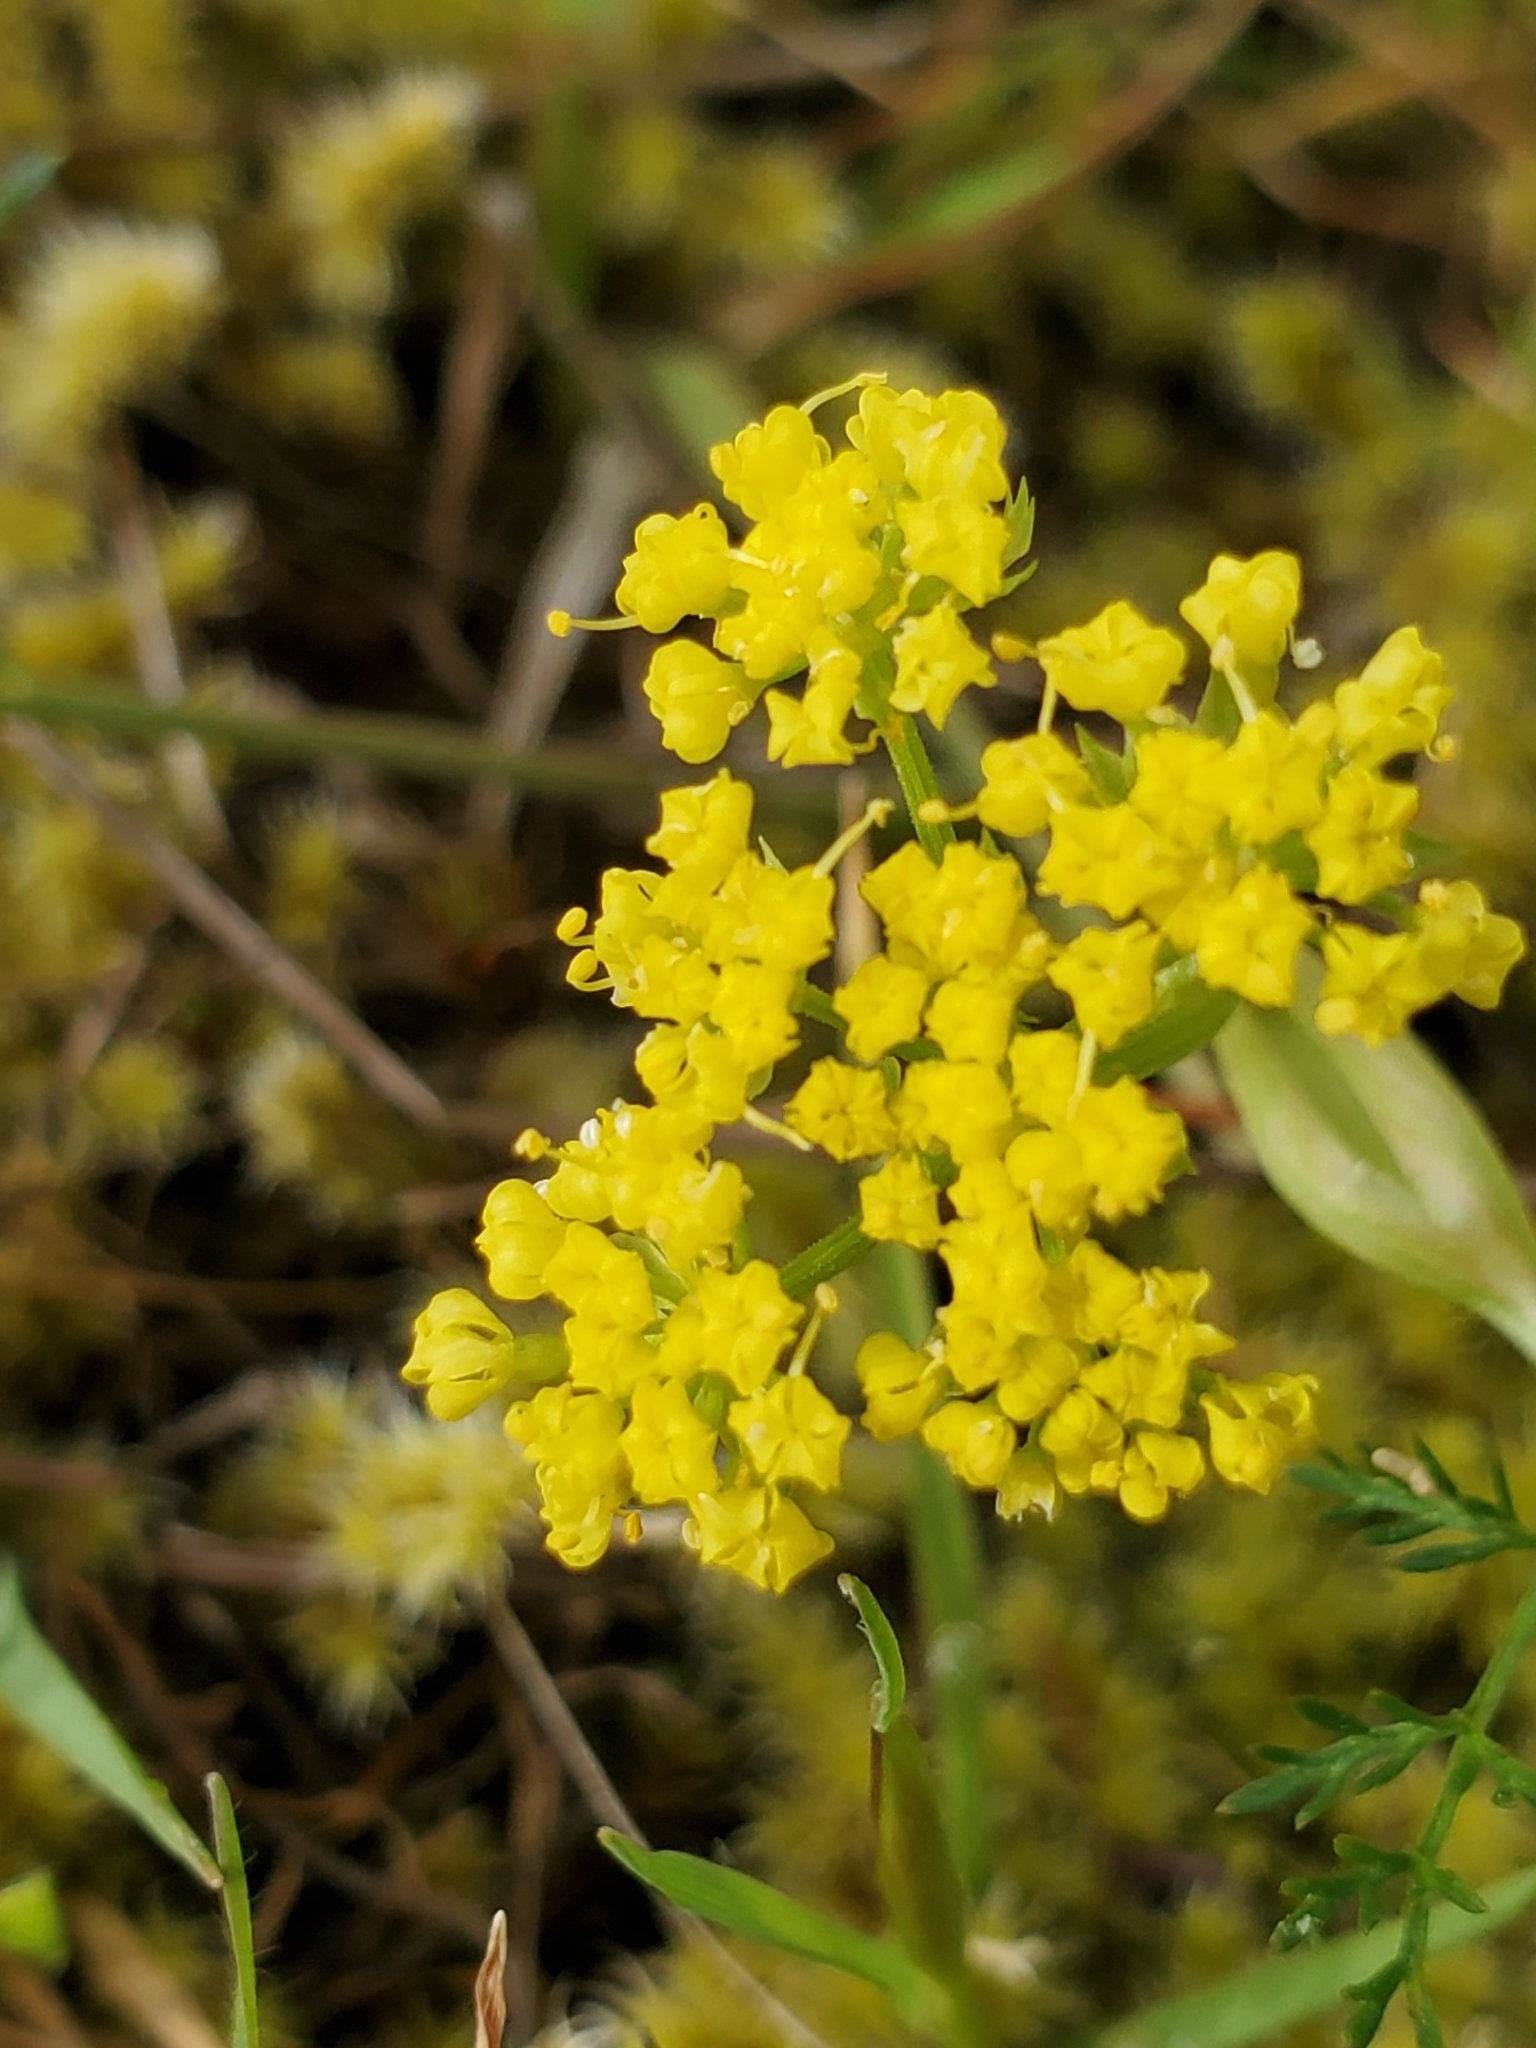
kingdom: Plantae
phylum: Tracheophyta
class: Magnoliopsida
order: Apiales
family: Apiaceae
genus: Lomatium
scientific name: Lomatium utriculatum
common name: Fine-leaf desert-parsley
